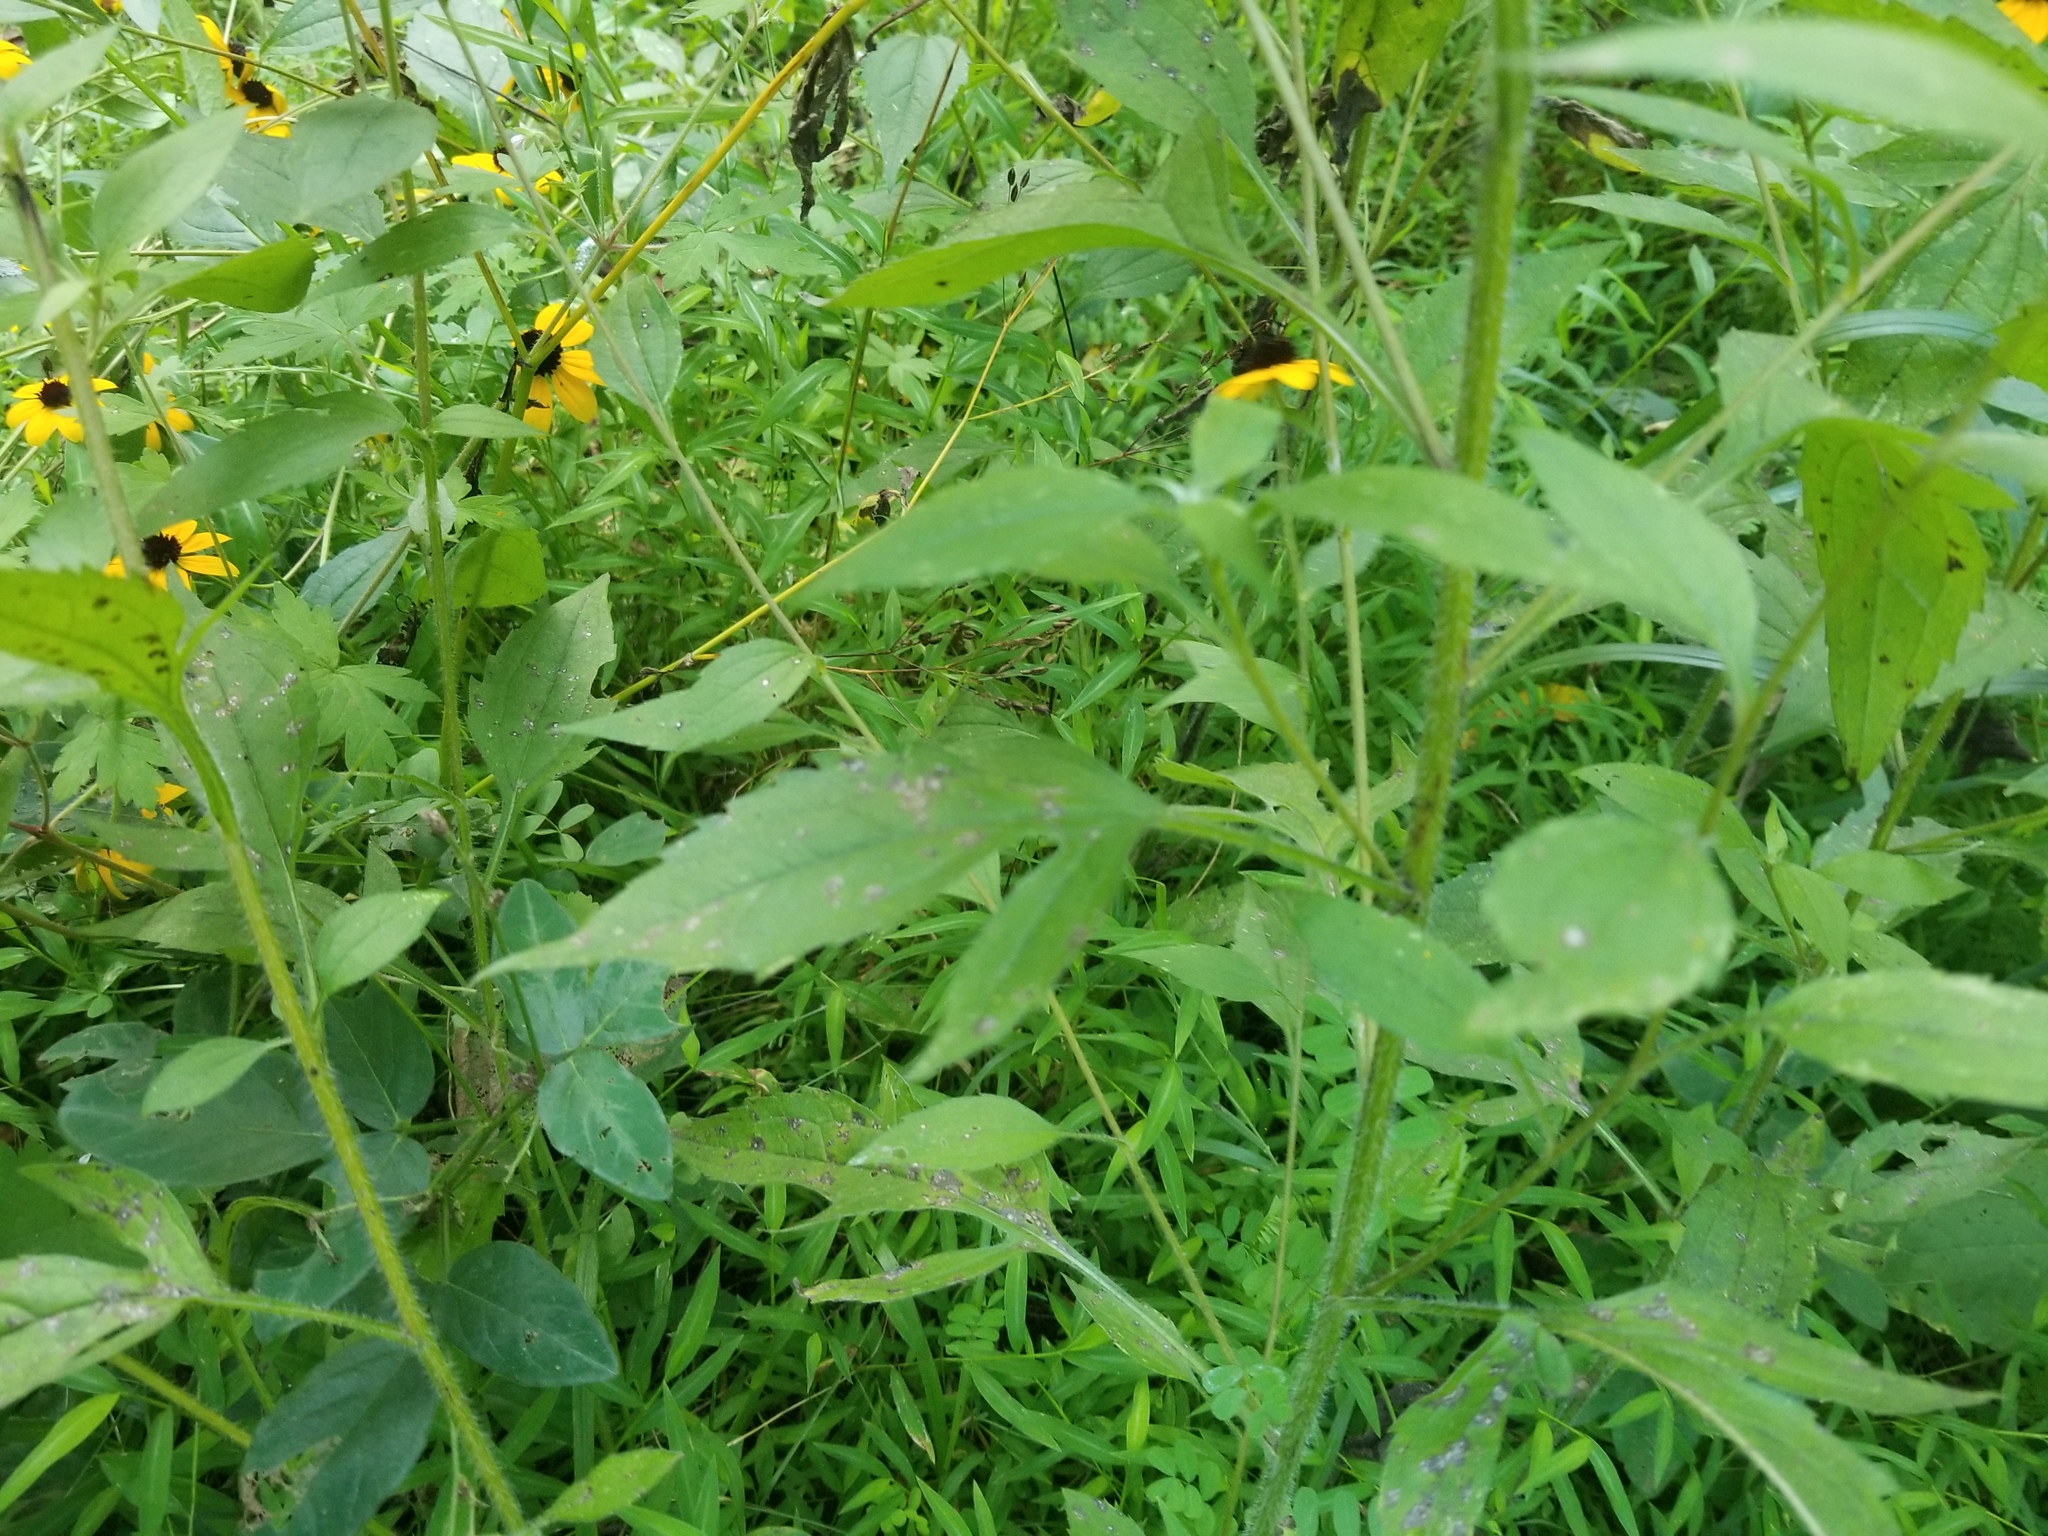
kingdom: Plantae
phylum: Tracheophyta
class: Magnoliopsida
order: Asterales
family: Asteraceae
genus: Rudbeckia
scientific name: Rudbeckia triloba
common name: Thin-leaved coneflower
